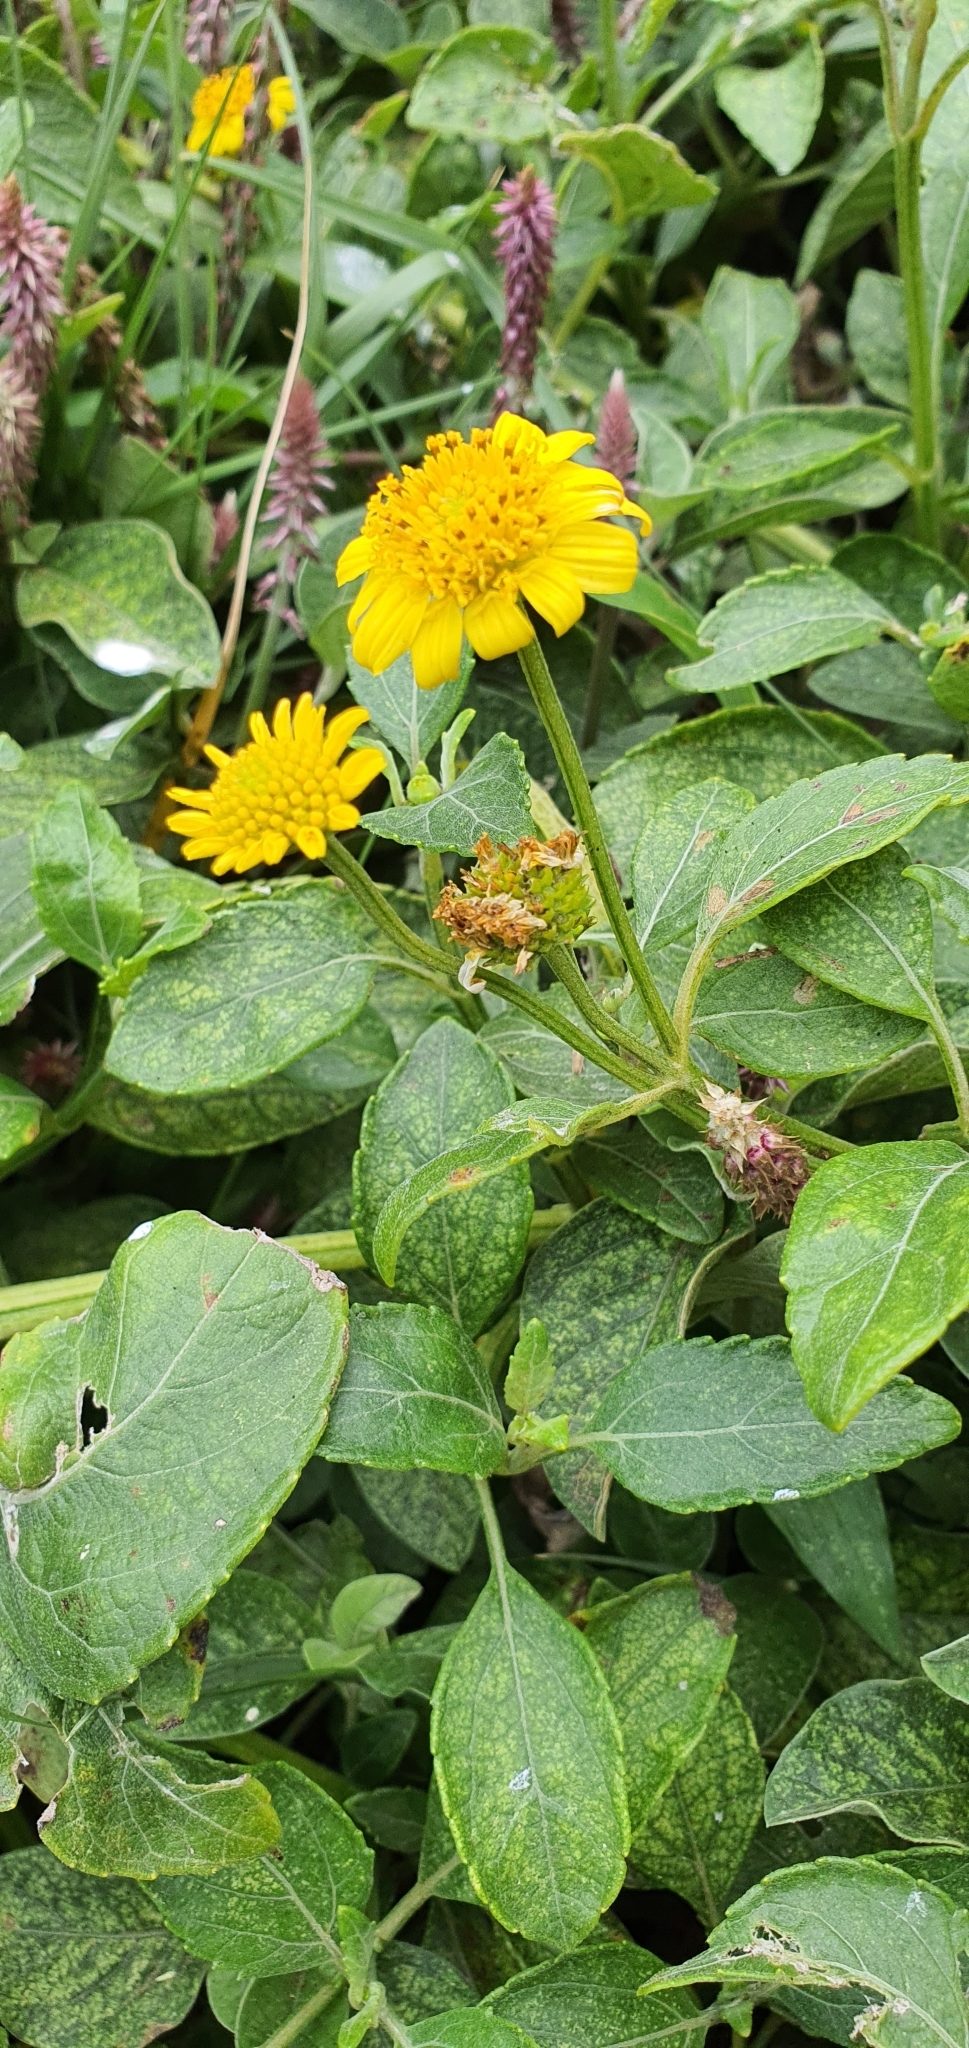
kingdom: Plantae
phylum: Tracheophyta
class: Magnoliopsida
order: Asterales
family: Asteraceae
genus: Wollastonia
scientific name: Wollastonia uniflora
